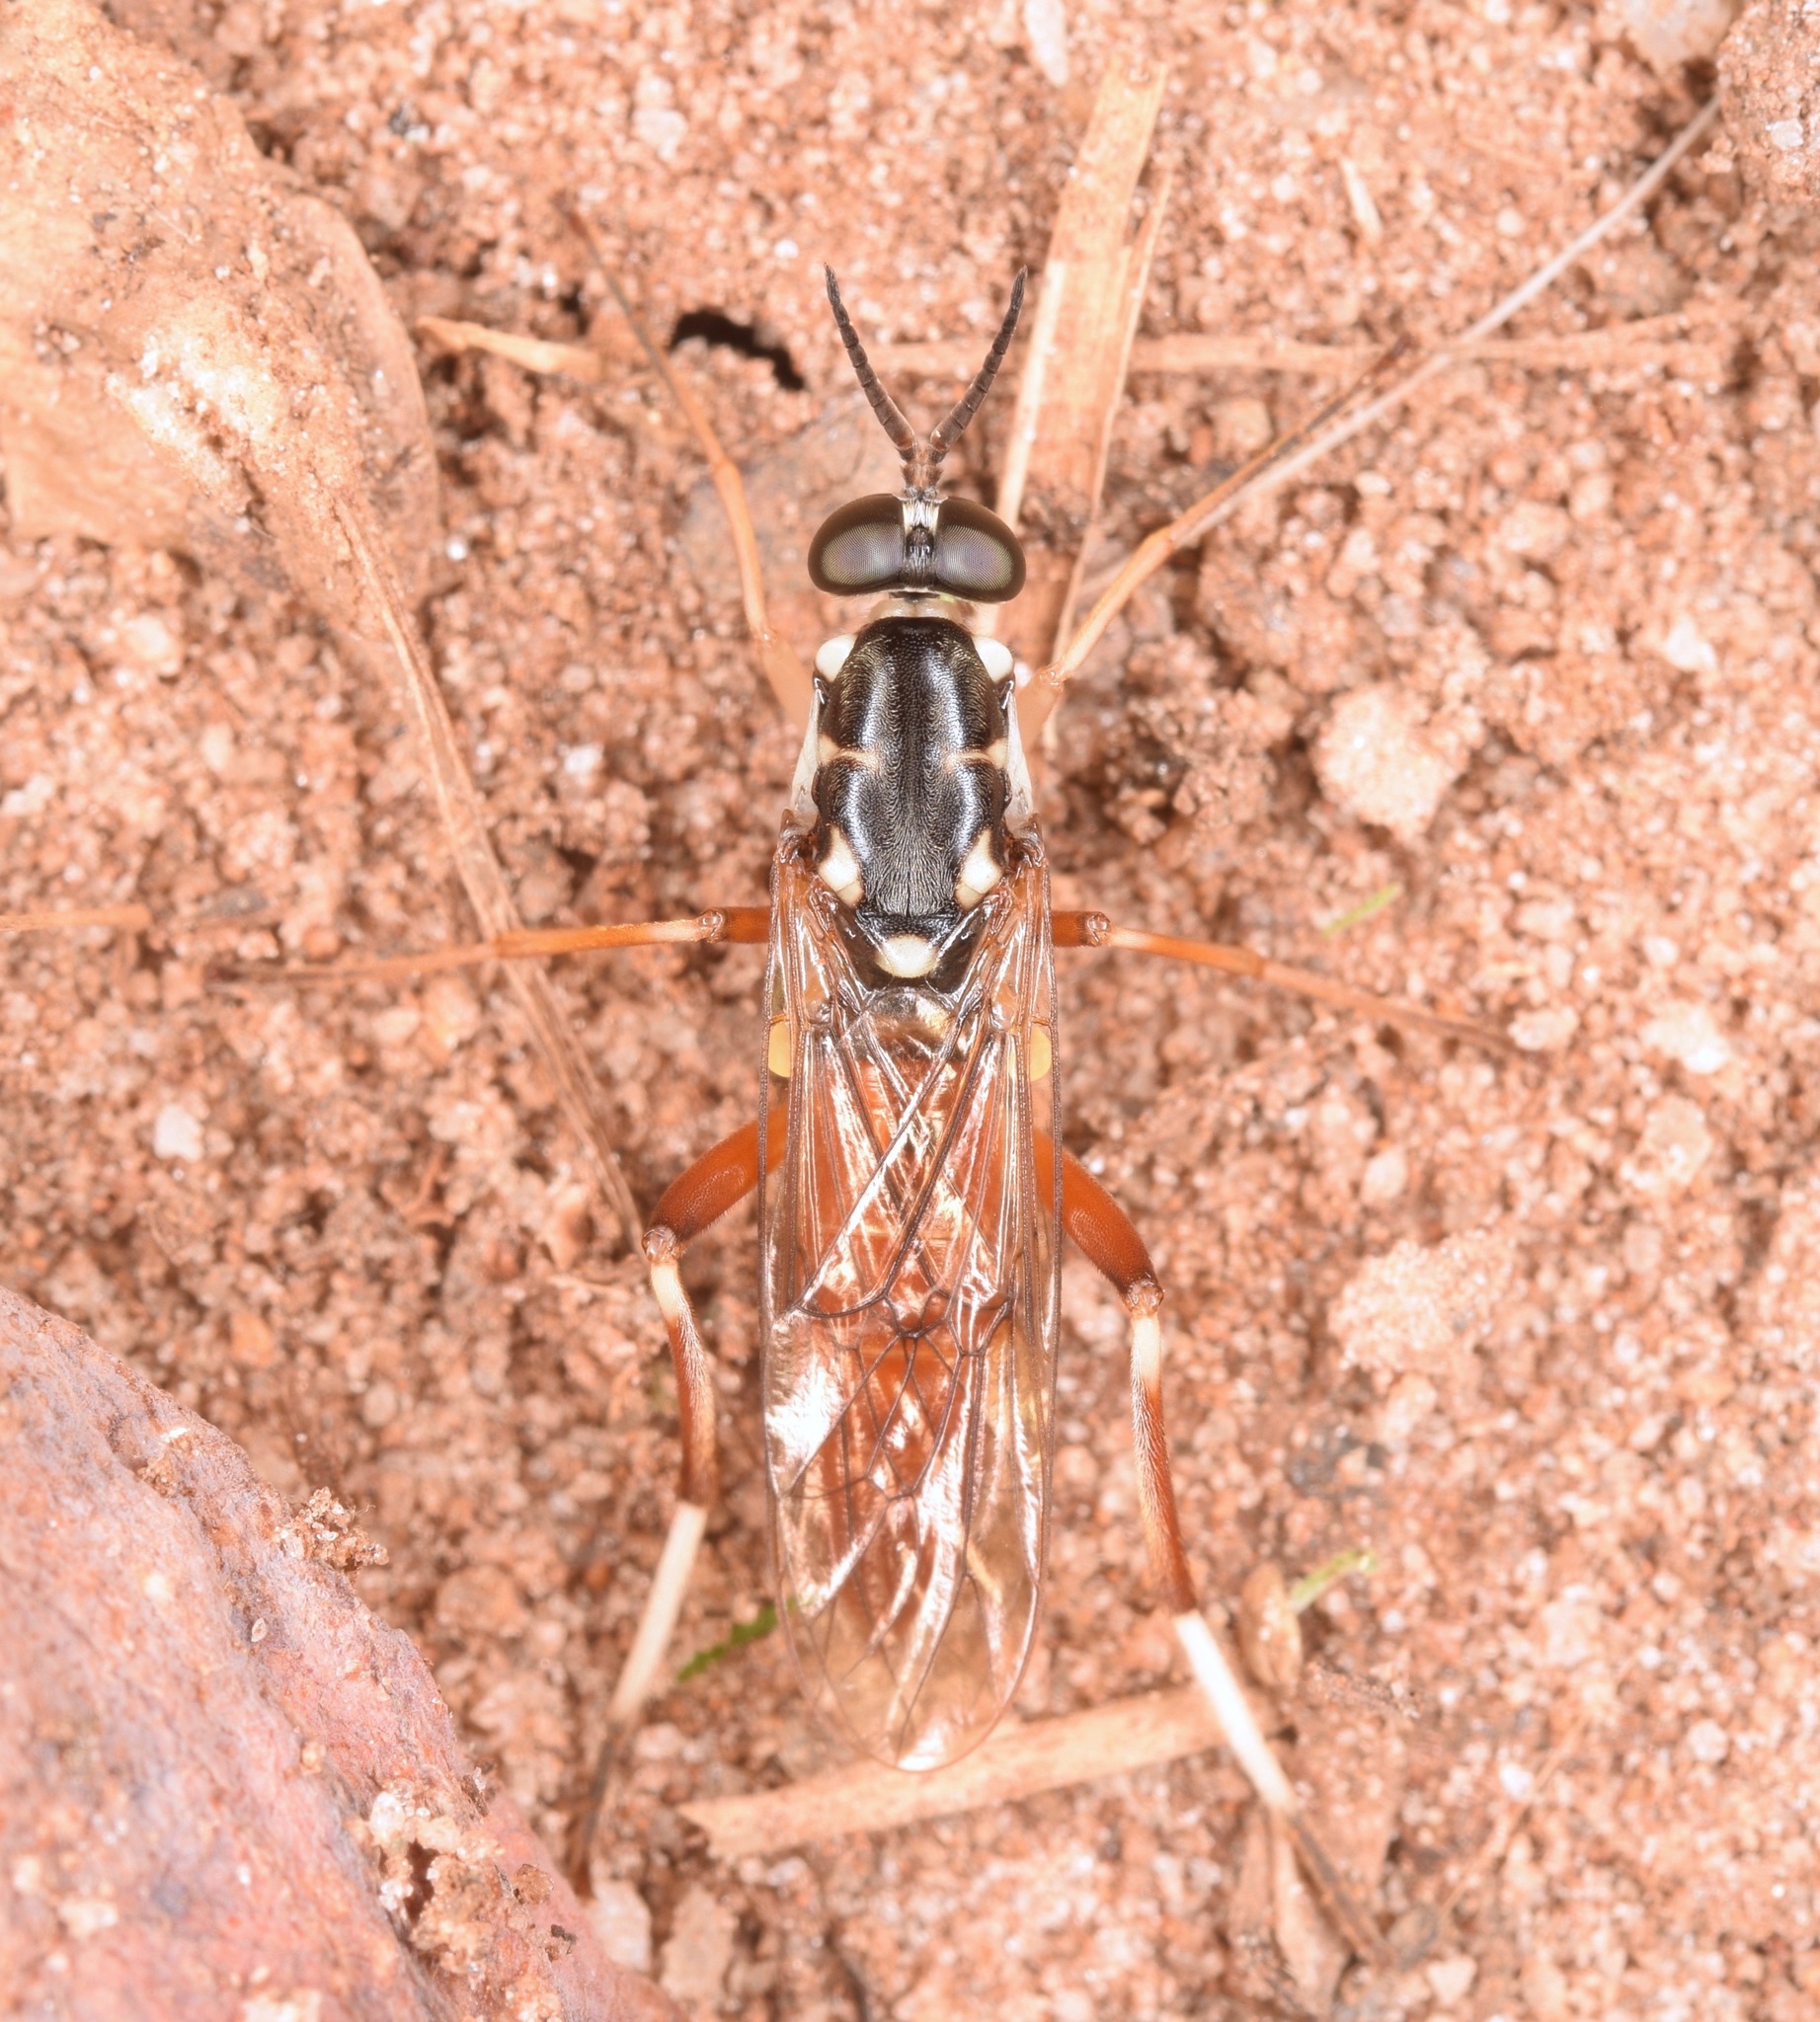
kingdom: Animalia
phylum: Arthropoda
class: Insecta
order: Diptera
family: Xylomyidae
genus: Xylomya
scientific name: Xylomya pallidifemur
